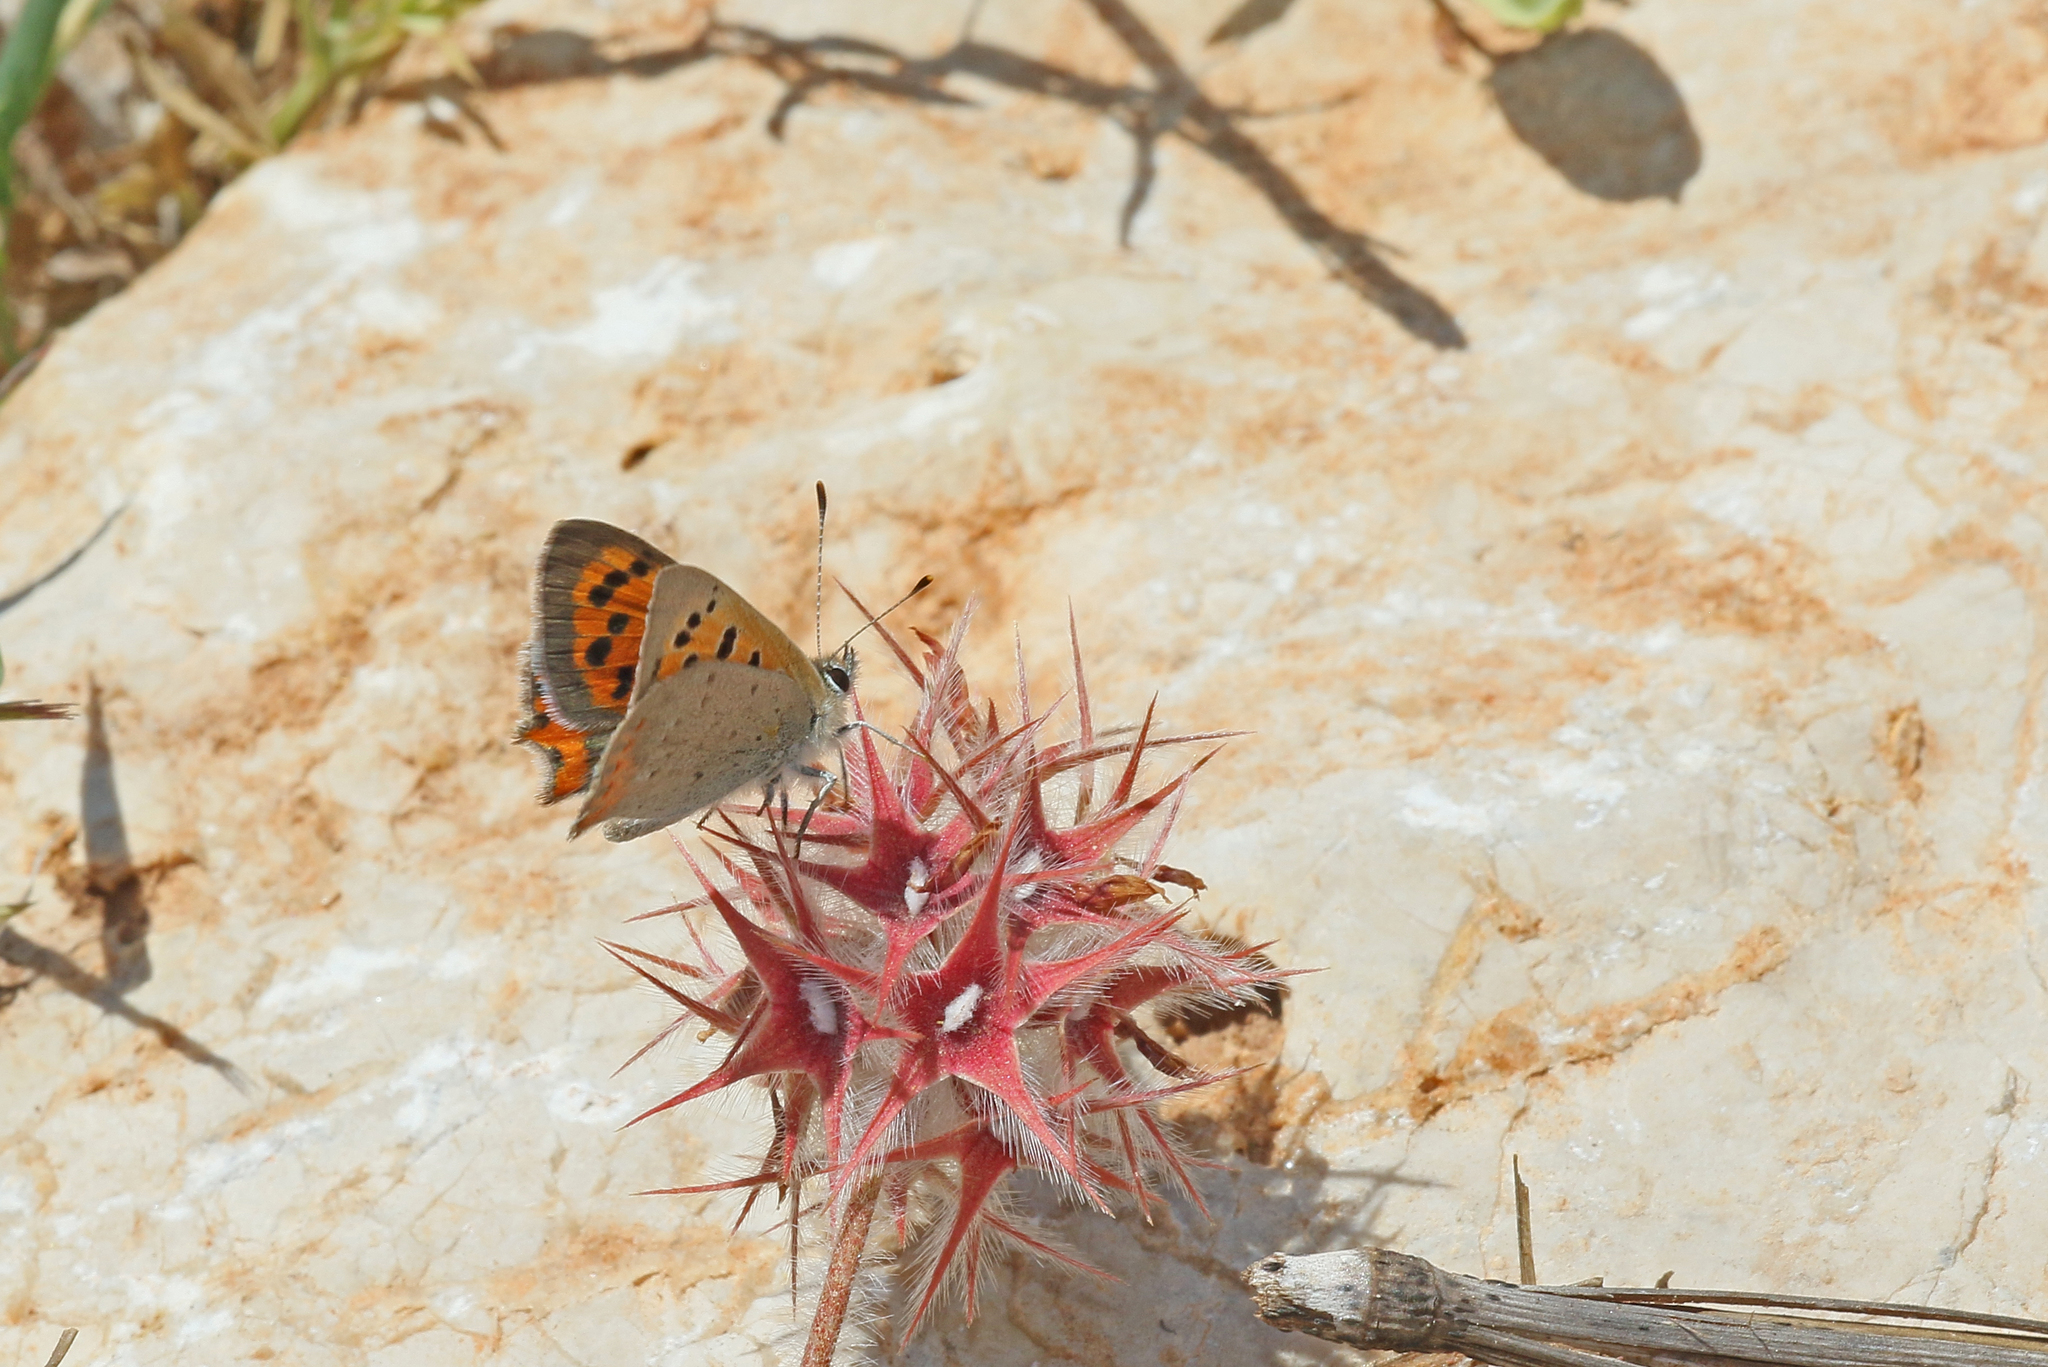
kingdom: Animalia
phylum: Arthropoda
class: Insecta
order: Lepidoptera
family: Lycaenidae
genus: Lycaena
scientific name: Lycaena phlaeas
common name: Small copper
